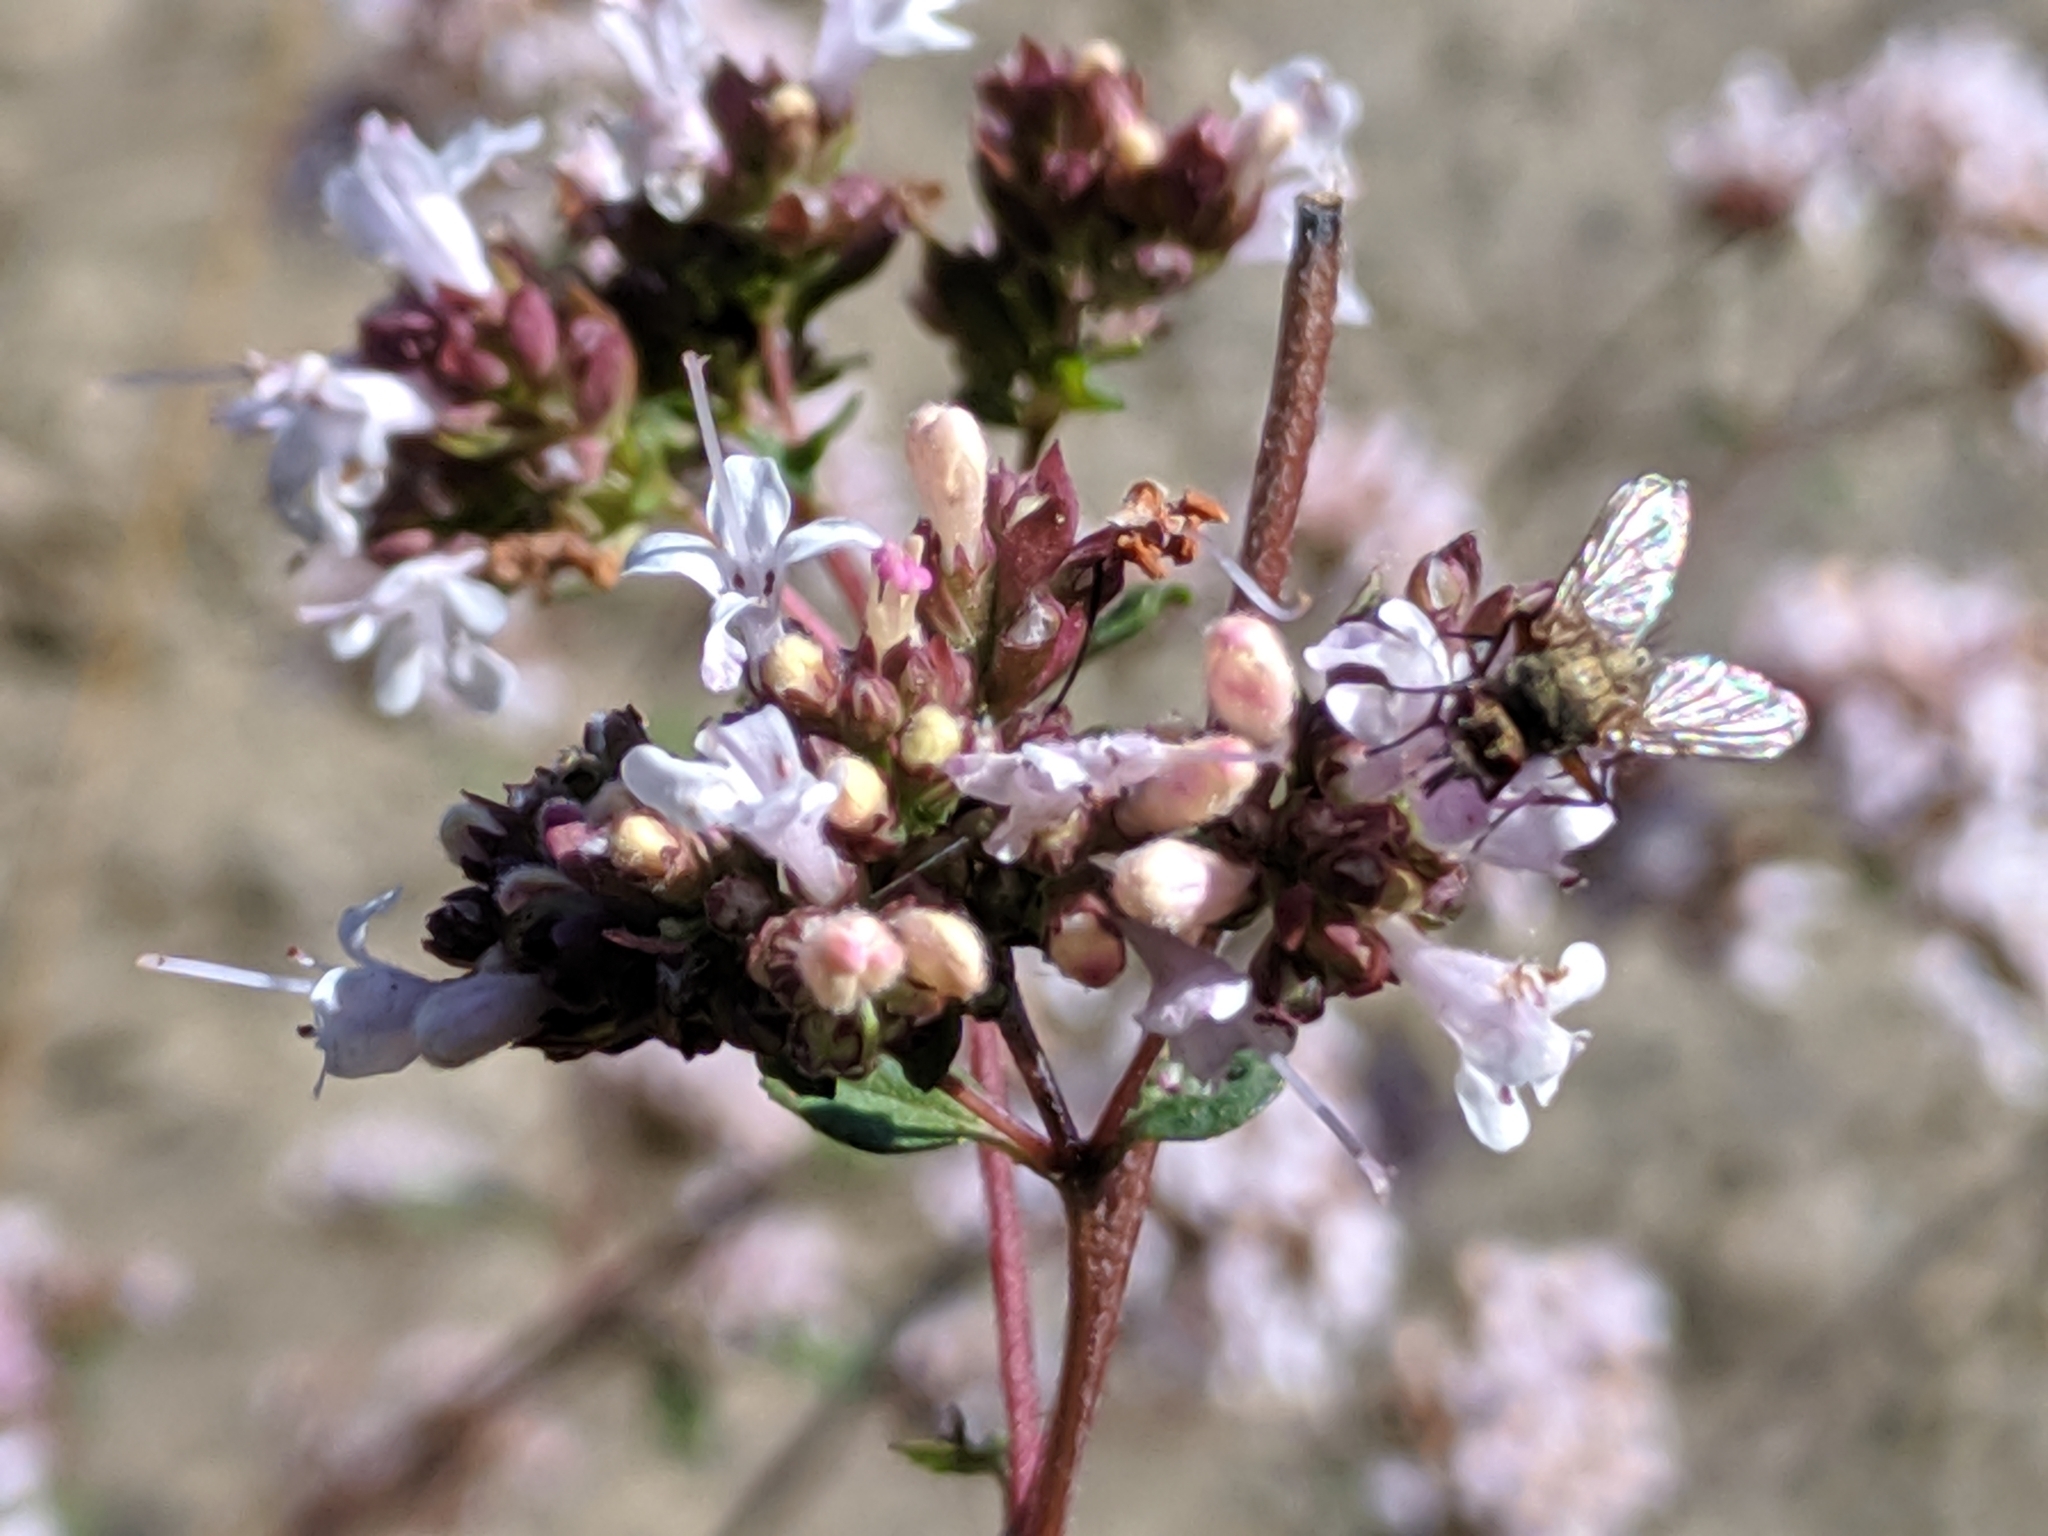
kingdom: Plantae
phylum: Tracheophyta
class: Magnoliopsida
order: Lamiales
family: Lamiaceae
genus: Origanum
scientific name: Origanum vulgare
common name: Wild marjoram
